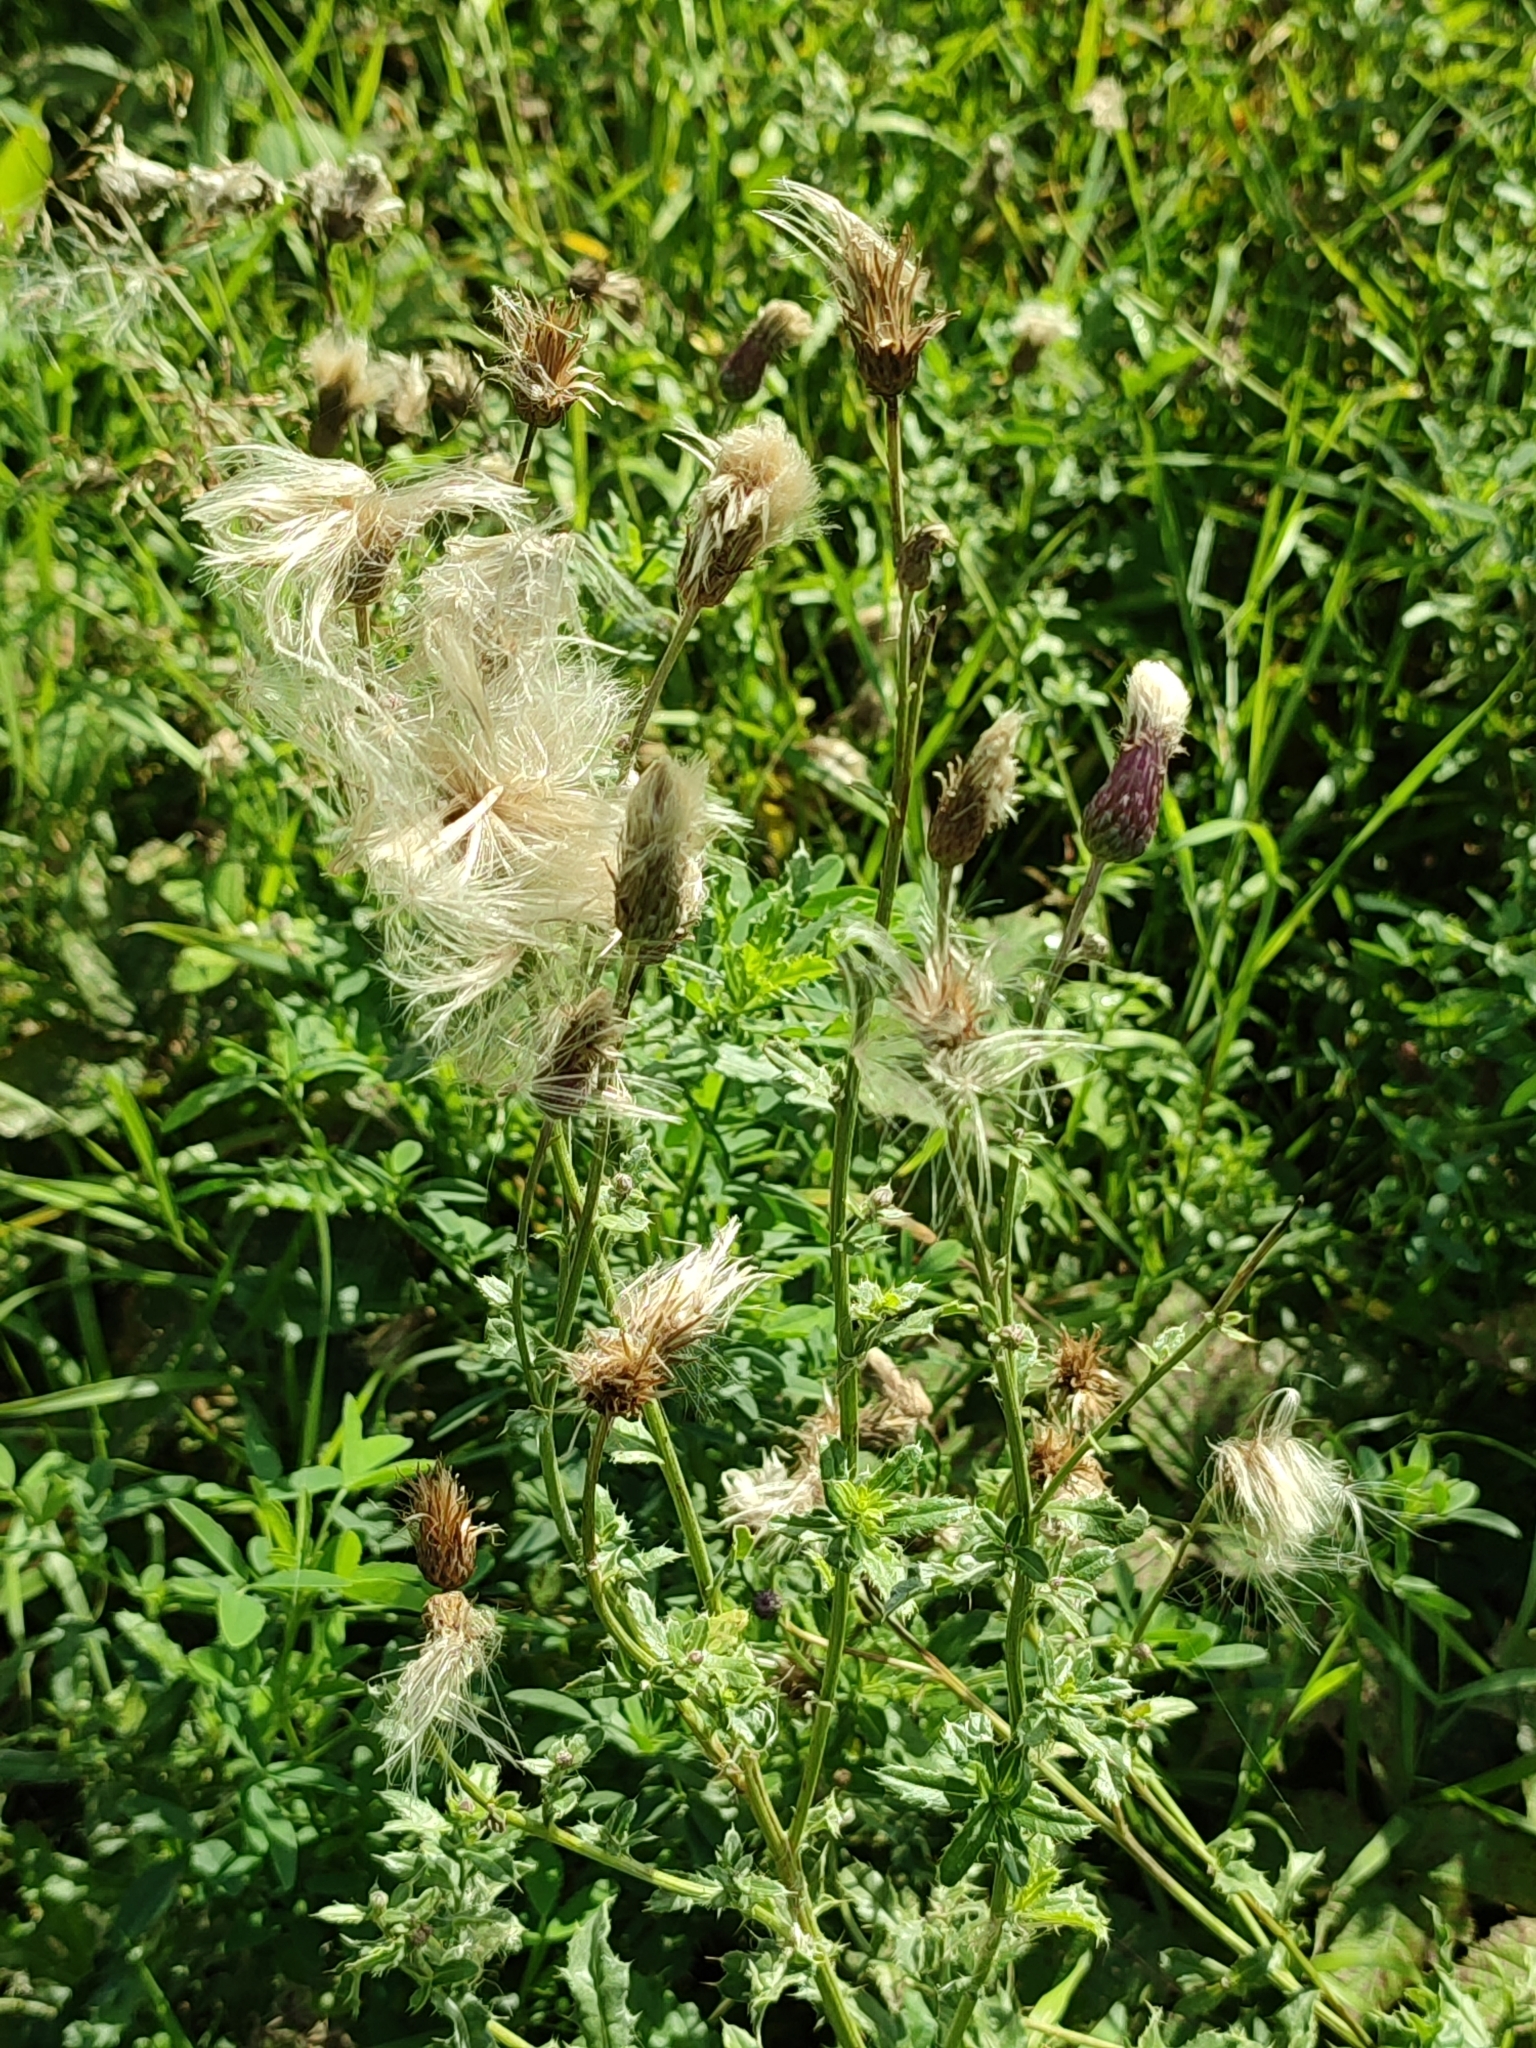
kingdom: Plantae
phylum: Tracheophyta
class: Magnoliopsida
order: Asterales
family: Asteraceae
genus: Cirsium
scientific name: Cirsium arvense
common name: Creeping thistle
